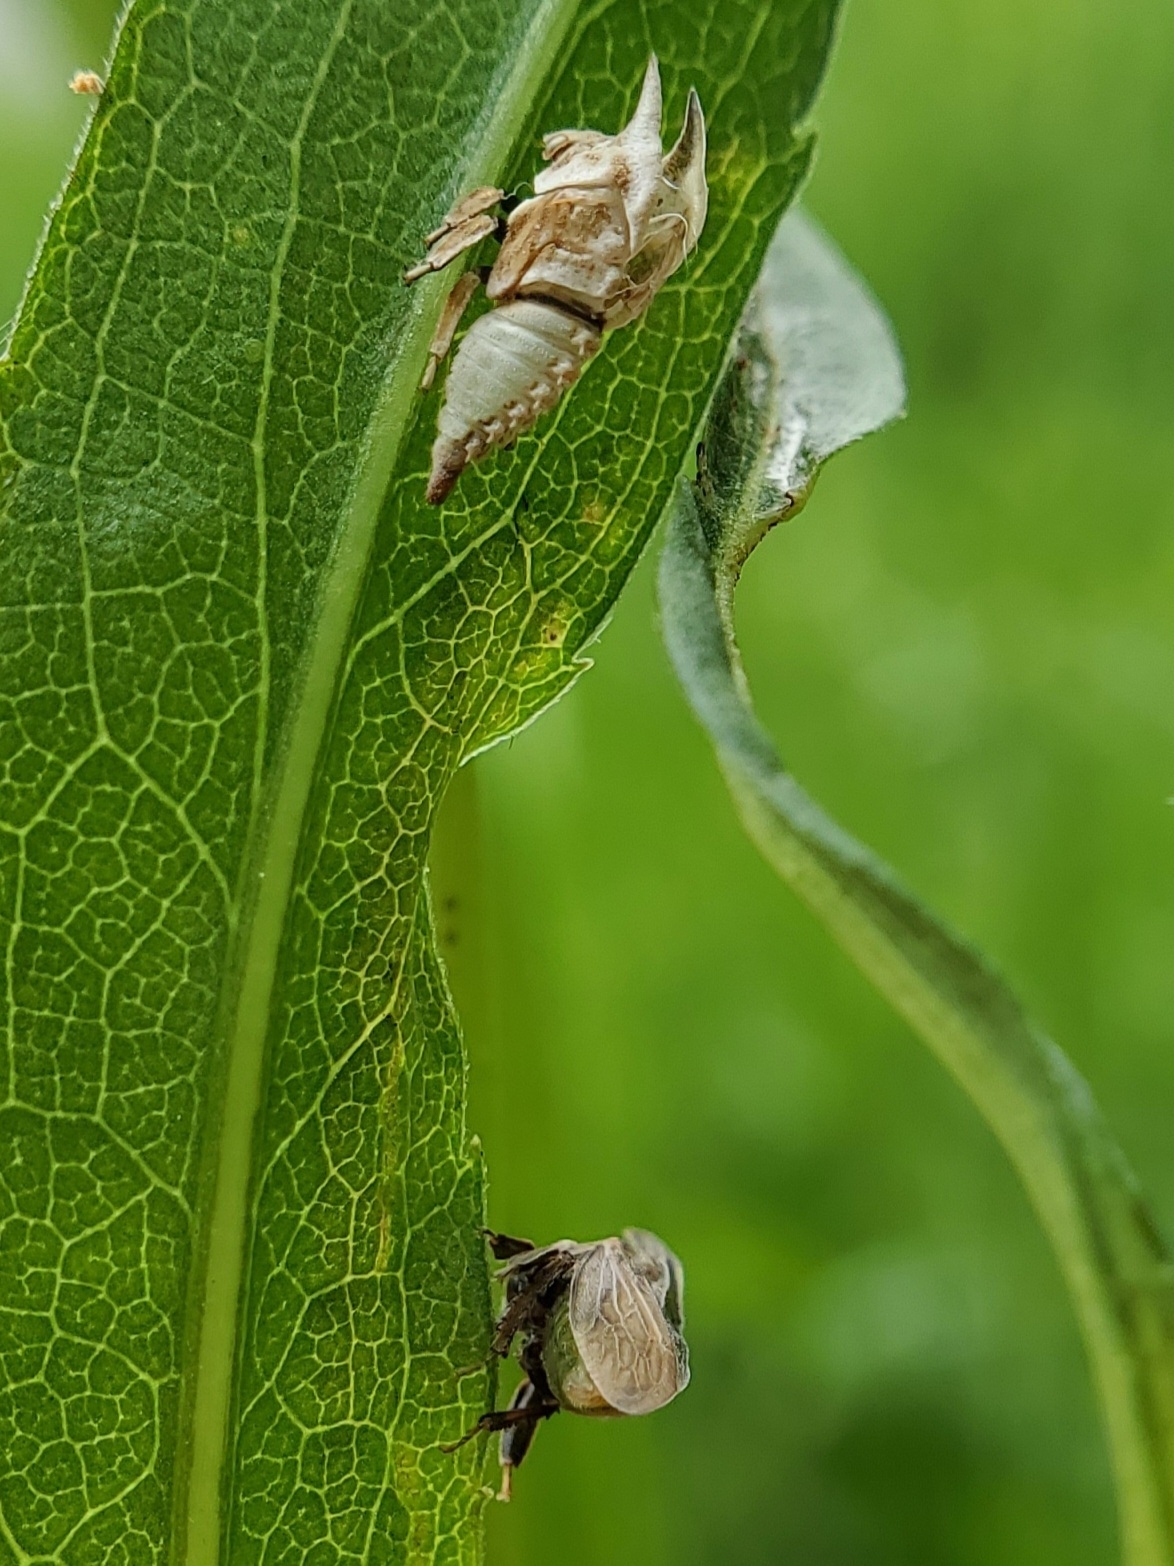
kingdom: Animalia
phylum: Arthropoda
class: Insecta
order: Hemiptera
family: Membracidae
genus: Enchenopa
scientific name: Enchenopa latipes
